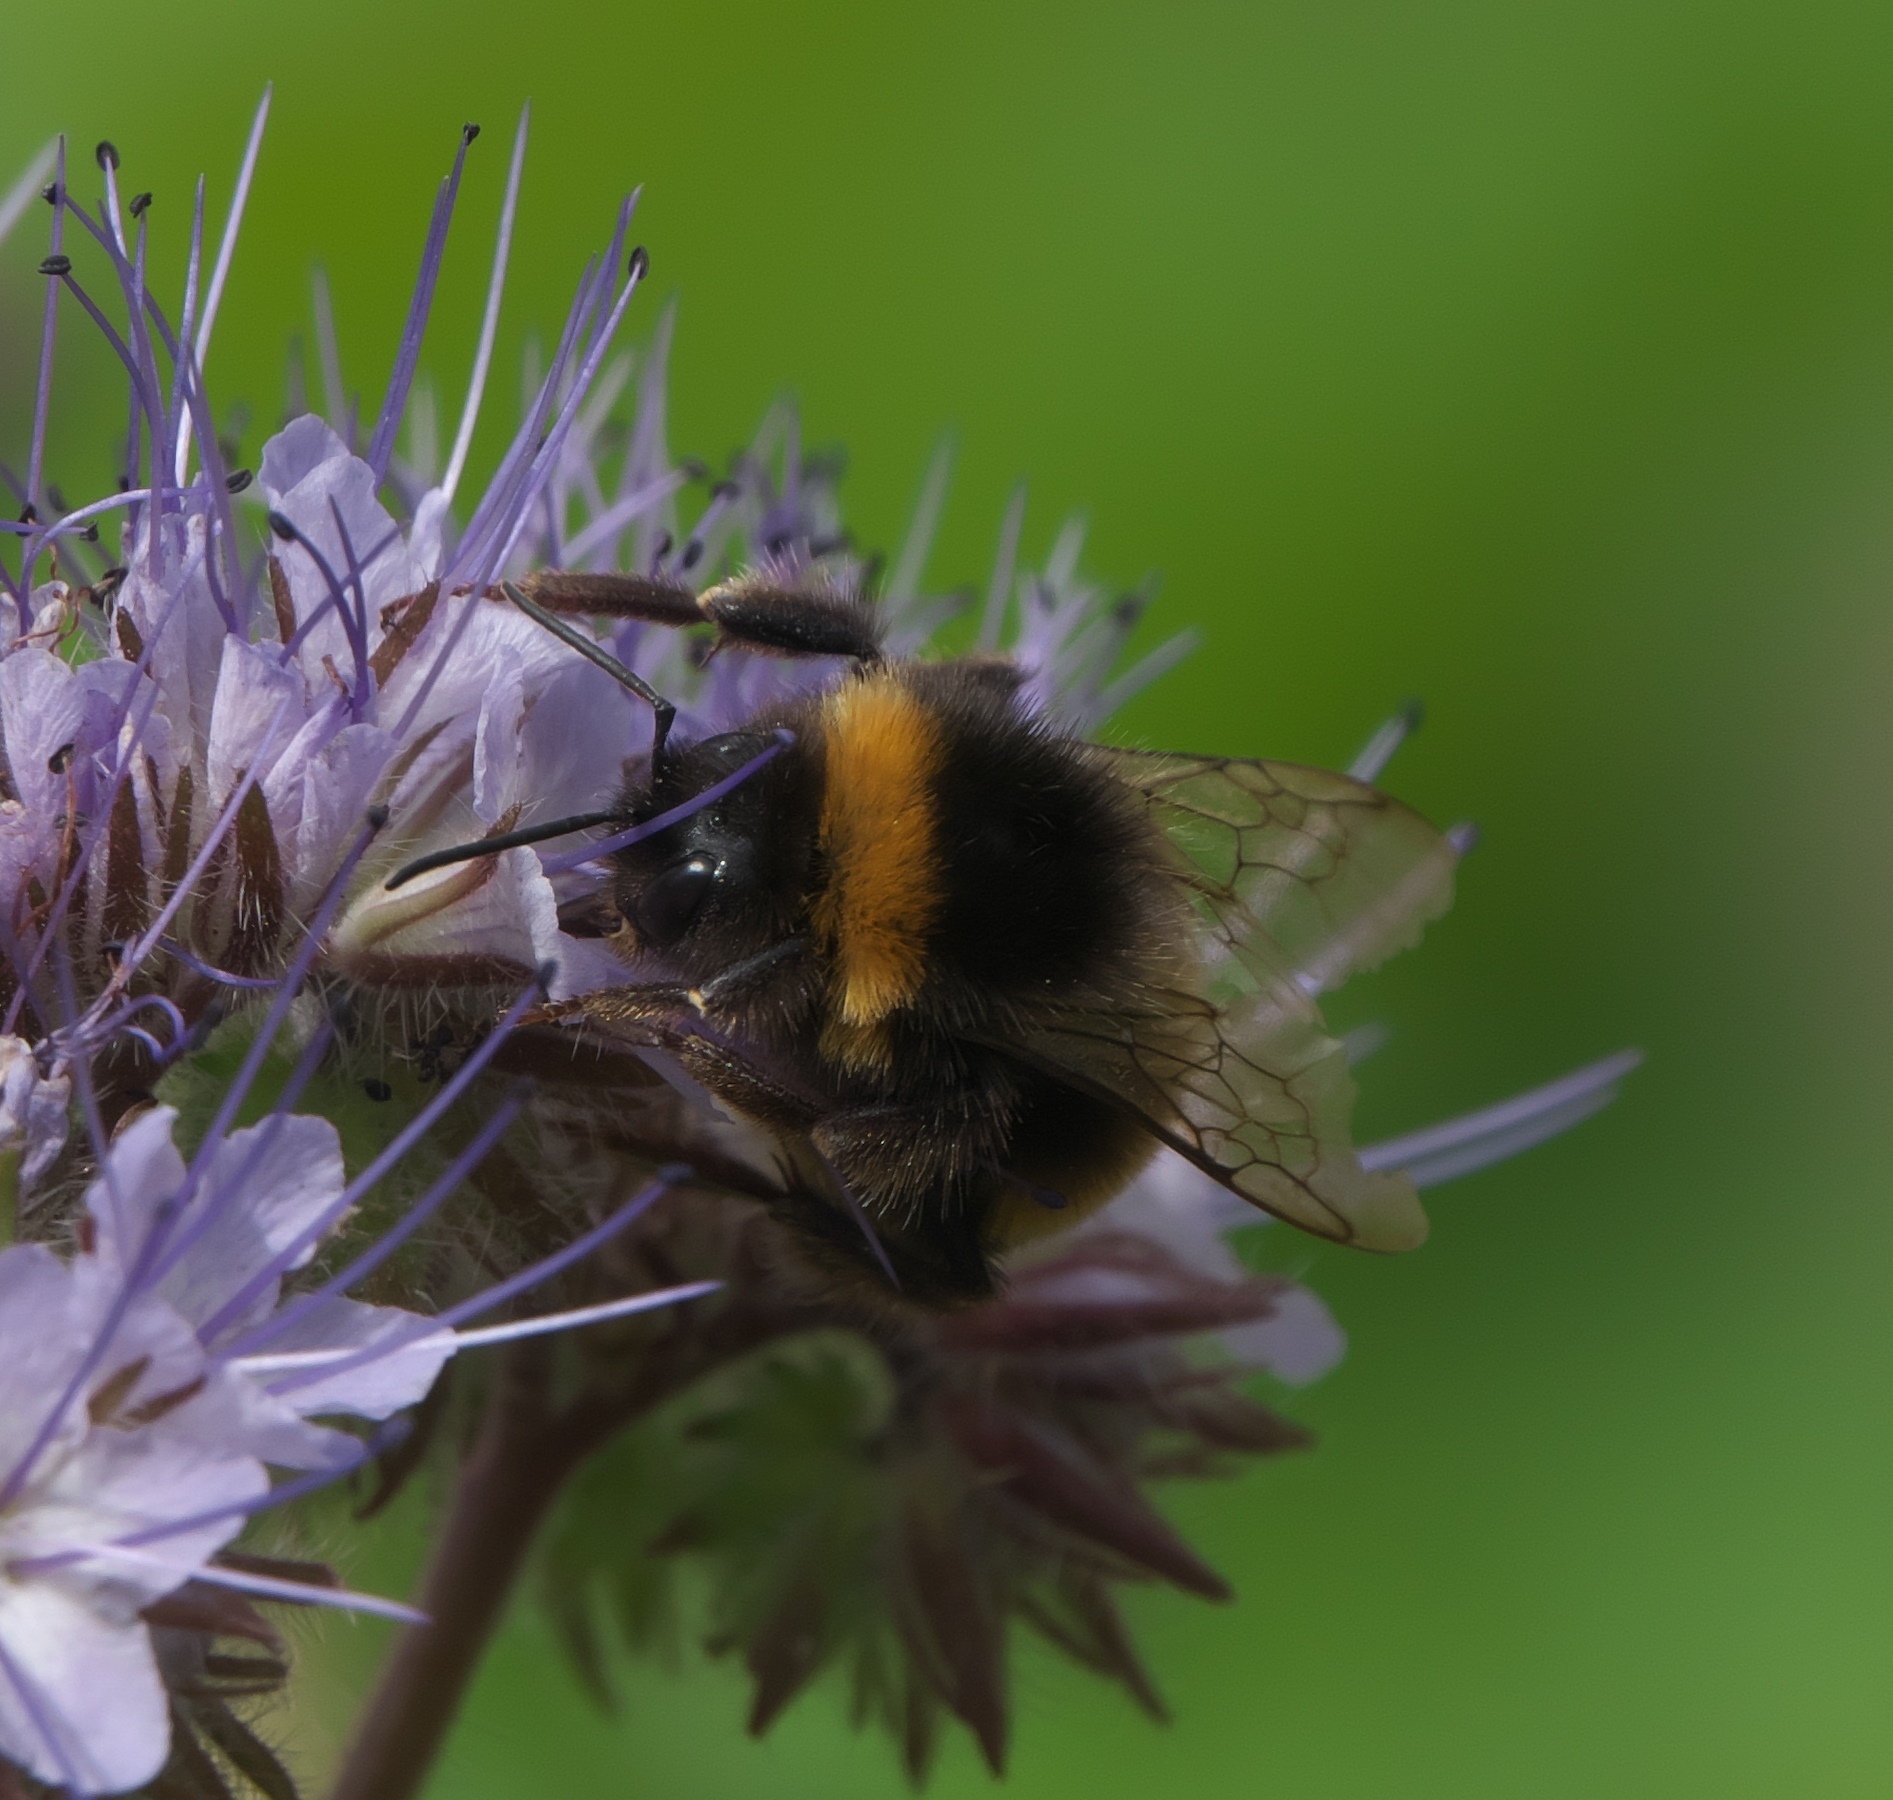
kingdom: Animalia
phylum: Arthropoda
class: Insecta
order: Hymenoptera
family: Apidae
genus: Bombus
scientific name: Bombus terrestris
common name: Buff-tailed bumblebee
